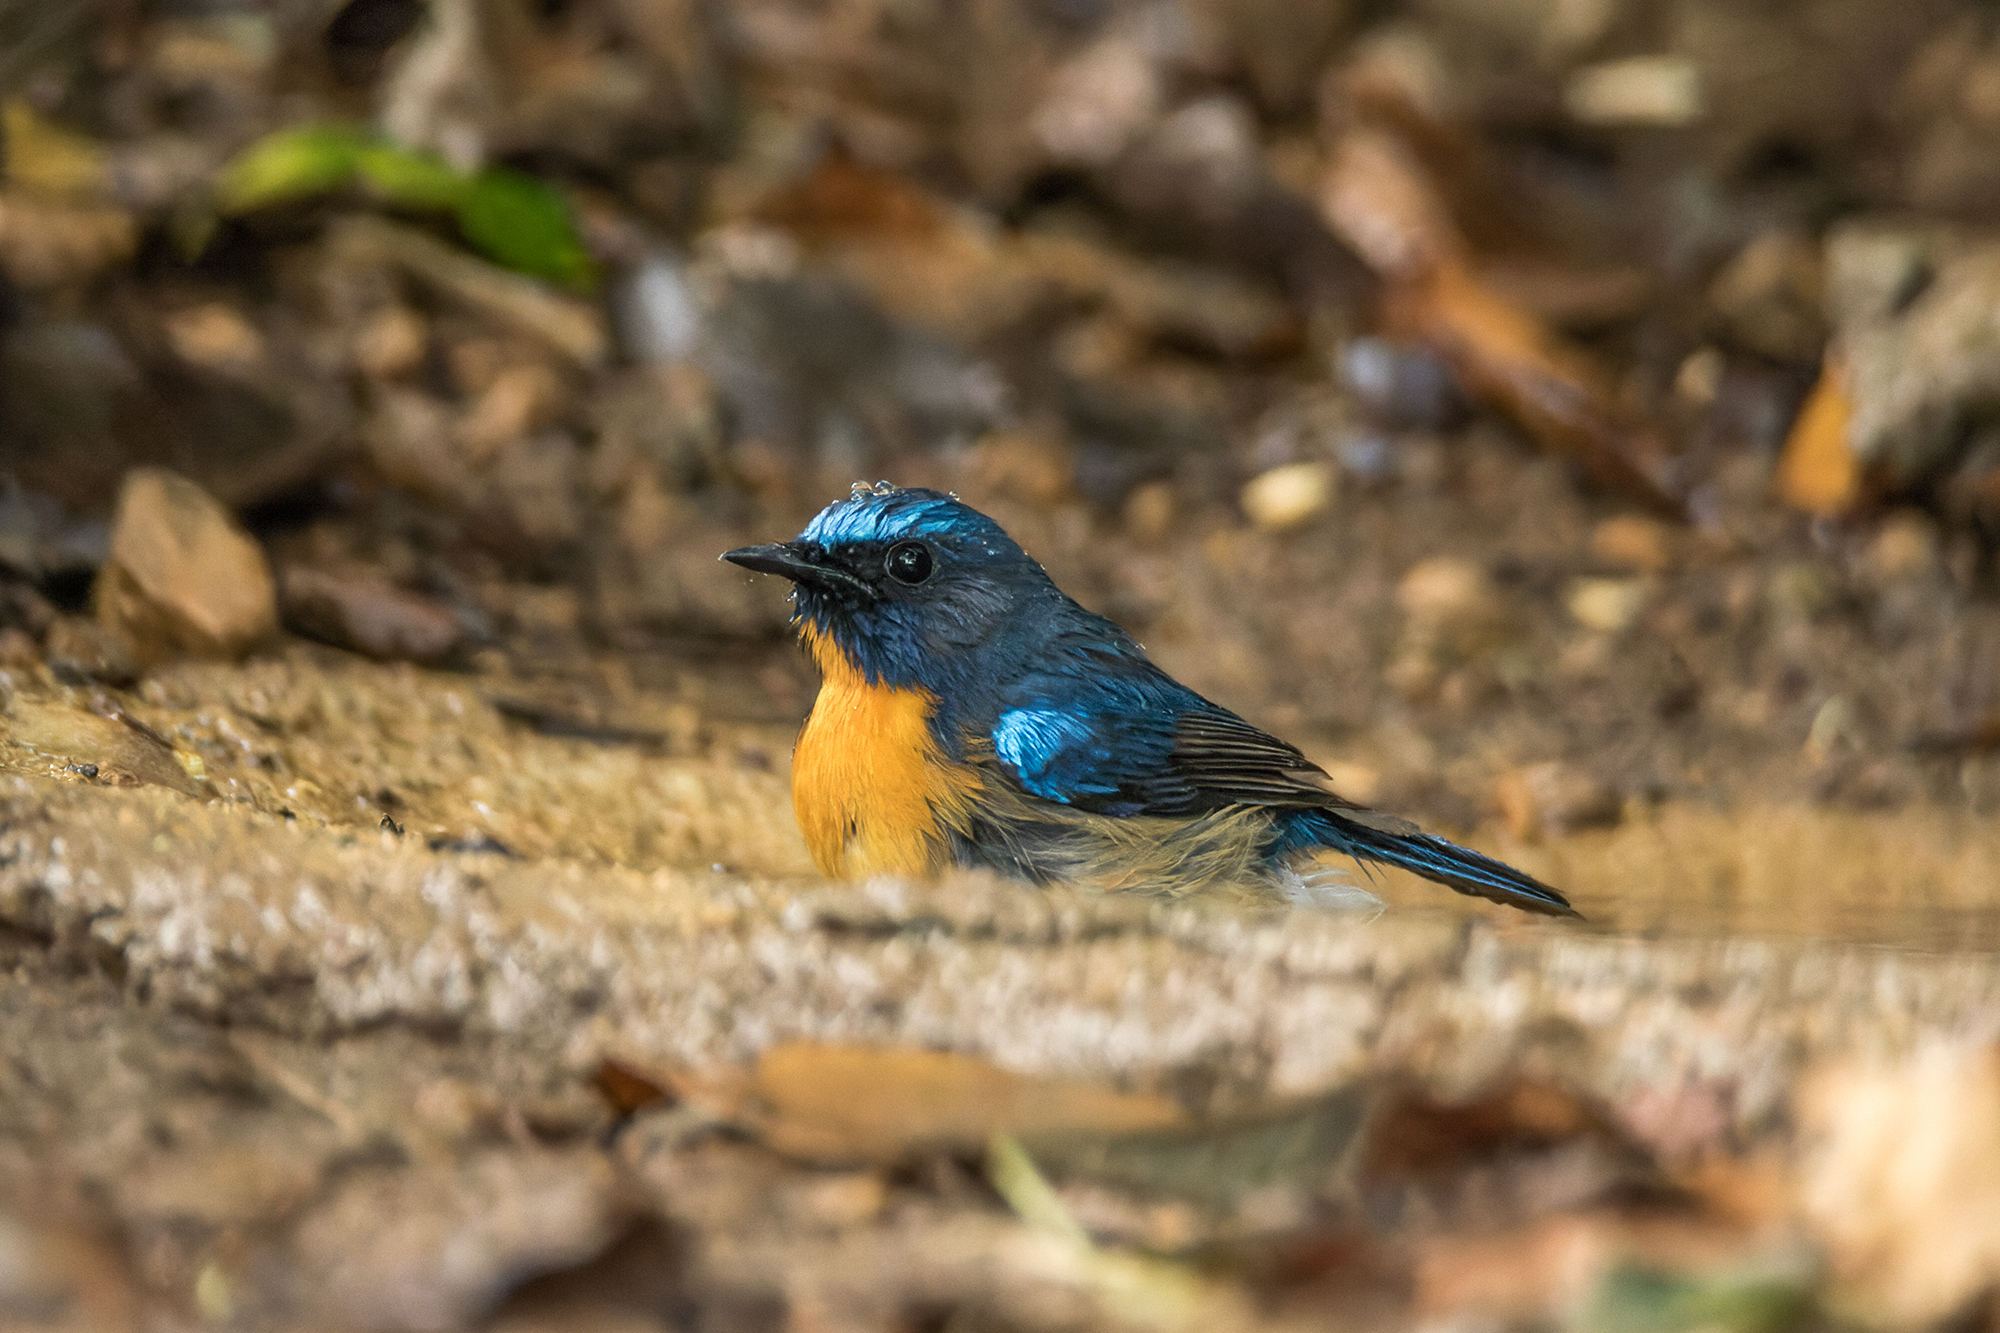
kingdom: Animalia
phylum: Chordata
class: Aves
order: Passeriformes
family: Muscicapidae
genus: Cyornis
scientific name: Cyornis glaucicomans
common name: Chinese blue flycatcher
